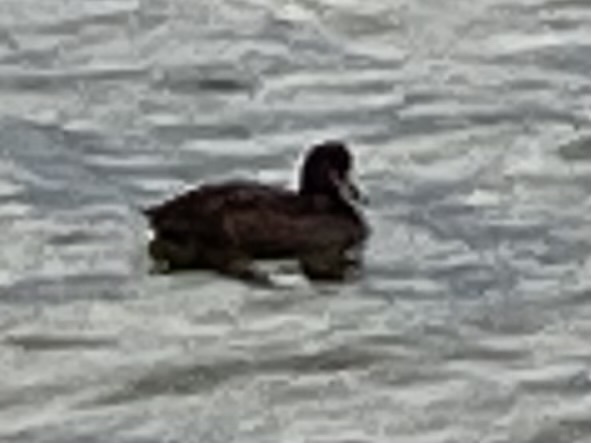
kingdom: Animalia
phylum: Chordata
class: Aves
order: Anseriformes
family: Anatidae
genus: Aythya
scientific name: Aythya novaeseelandiae
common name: New zealand scaup
